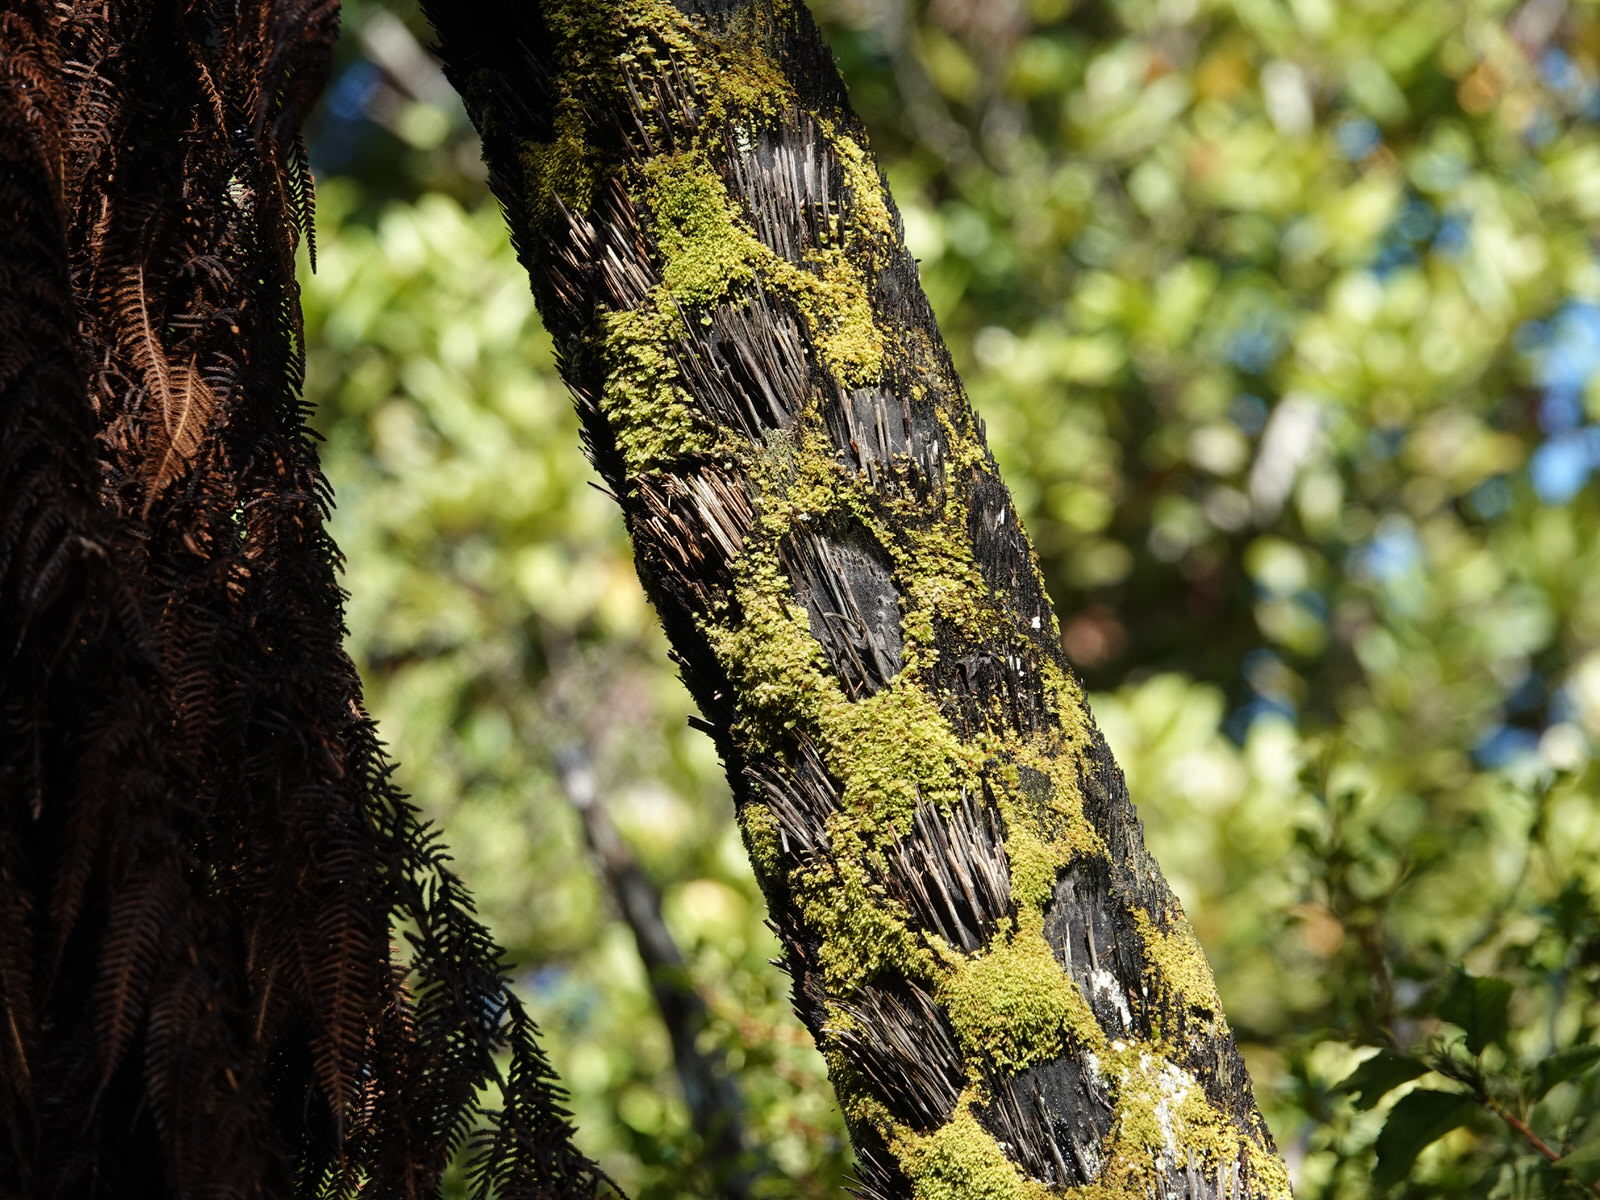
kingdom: Plantae
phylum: Tracheophyta
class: Polypodiopsida
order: Cyatheales
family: Cyatheaceae
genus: Sphaeropteris
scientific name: Sphaeropteris medullaris
